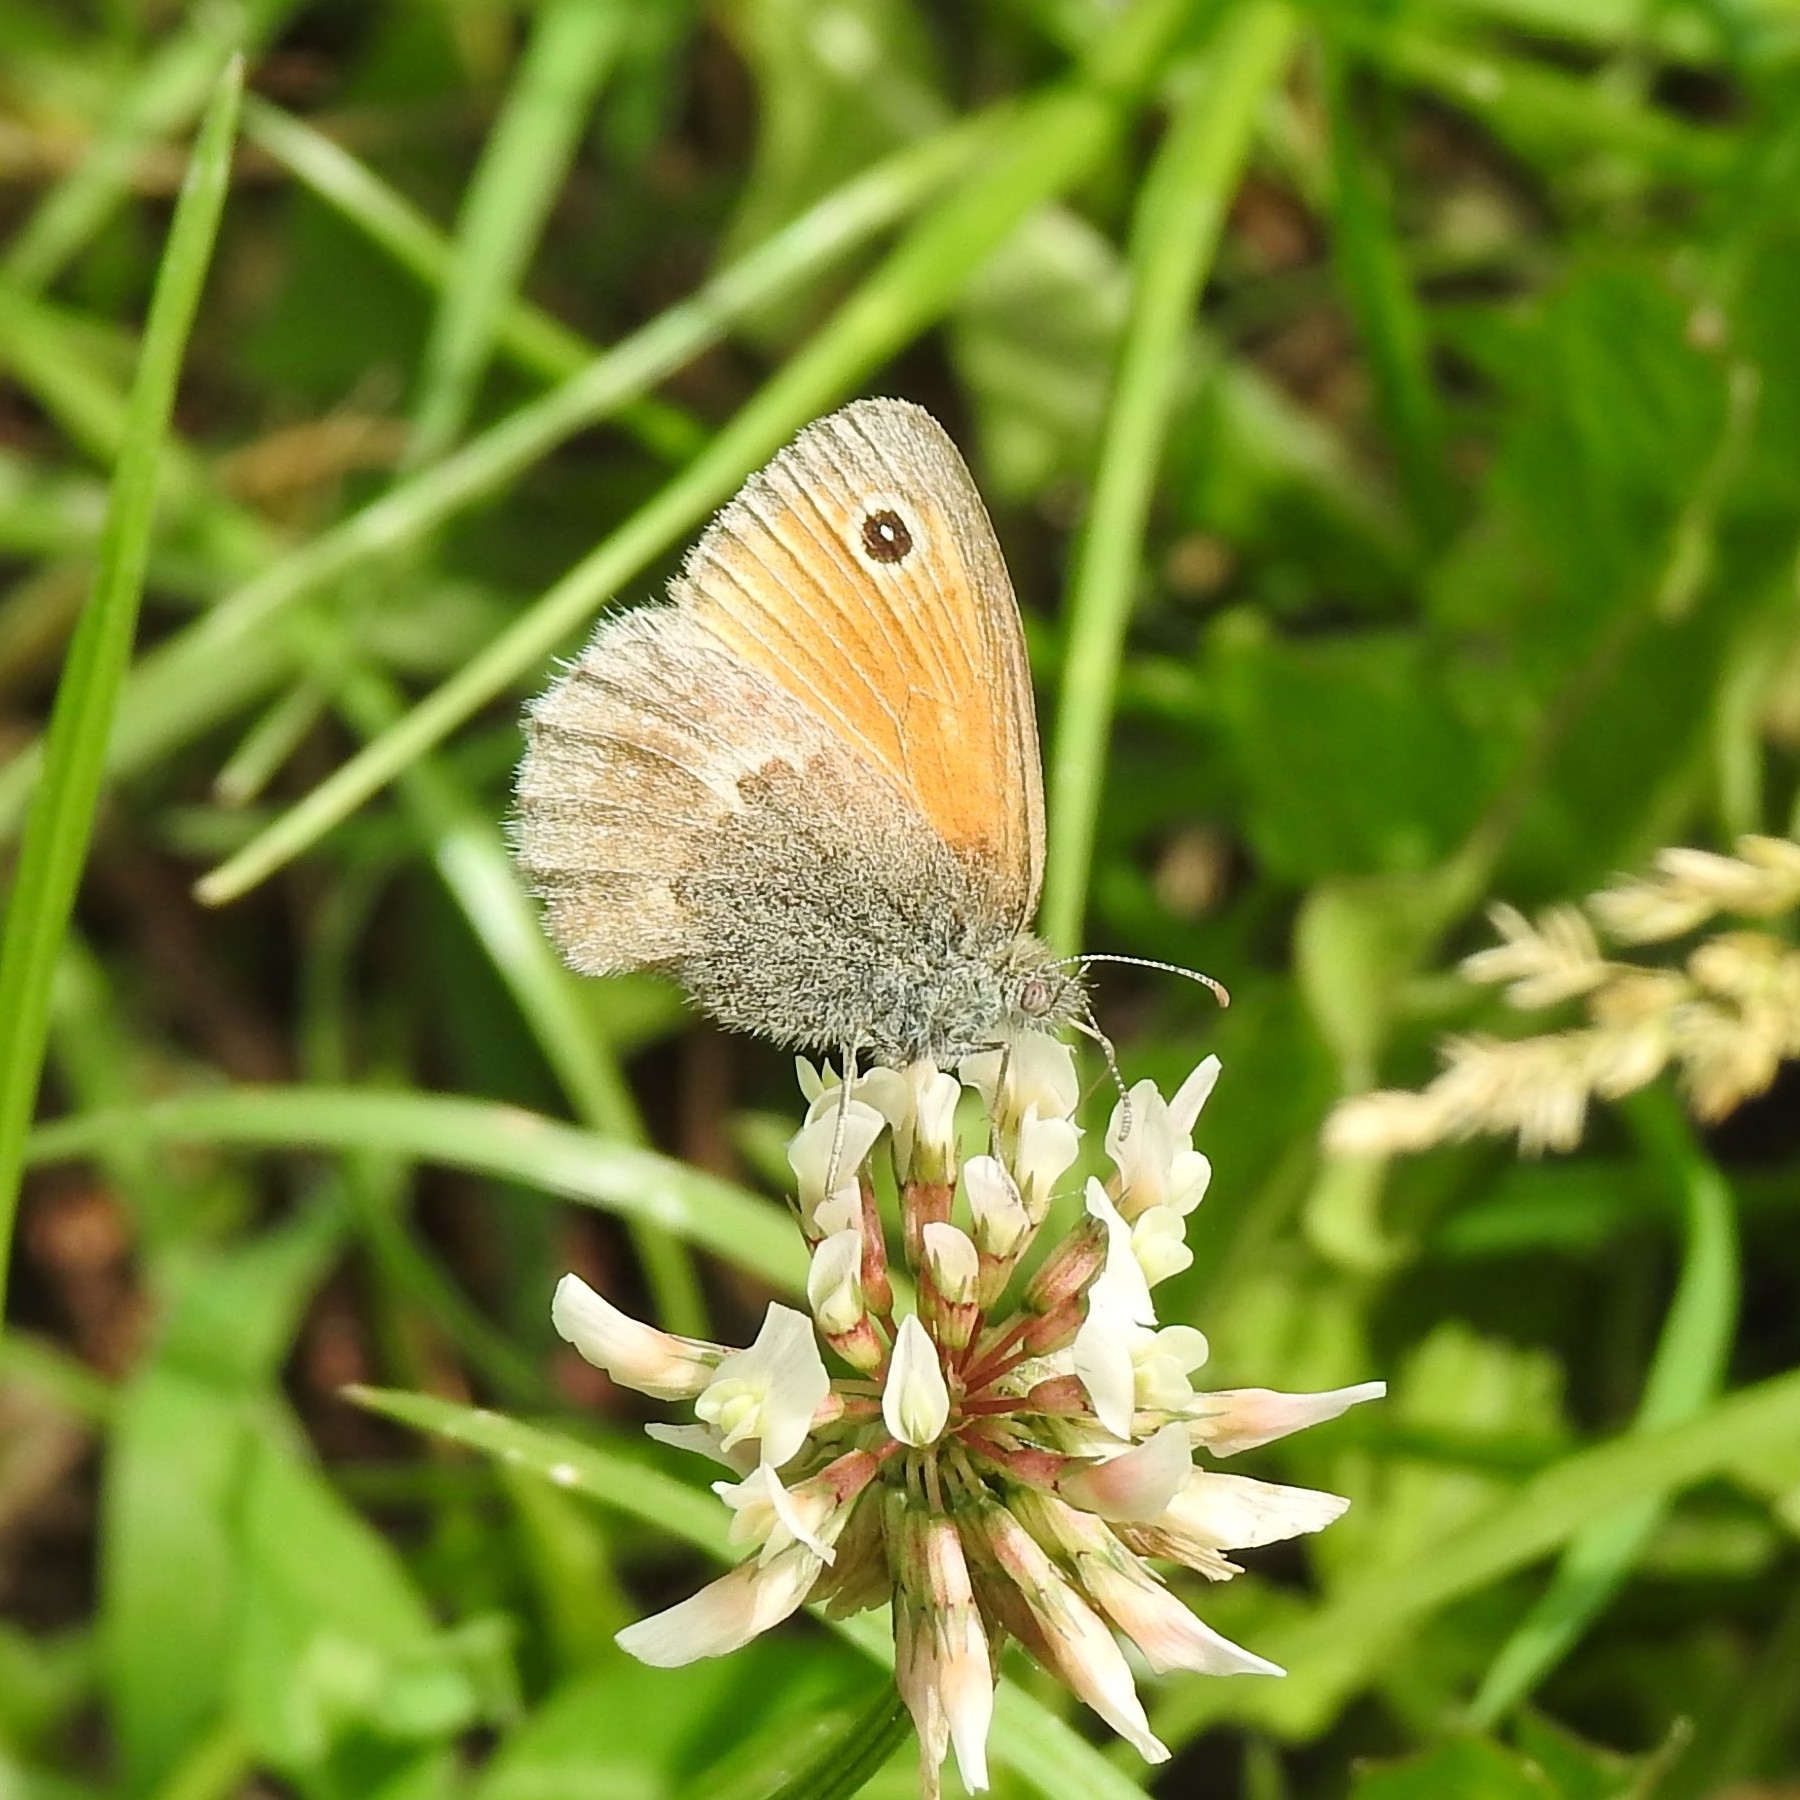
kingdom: Animalia
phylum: Arthropoda
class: Insecta
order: Lepidoptera
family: Nymphalidae
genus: Coenonympha
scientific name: Coenonympha pamphilus
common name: Small heath
